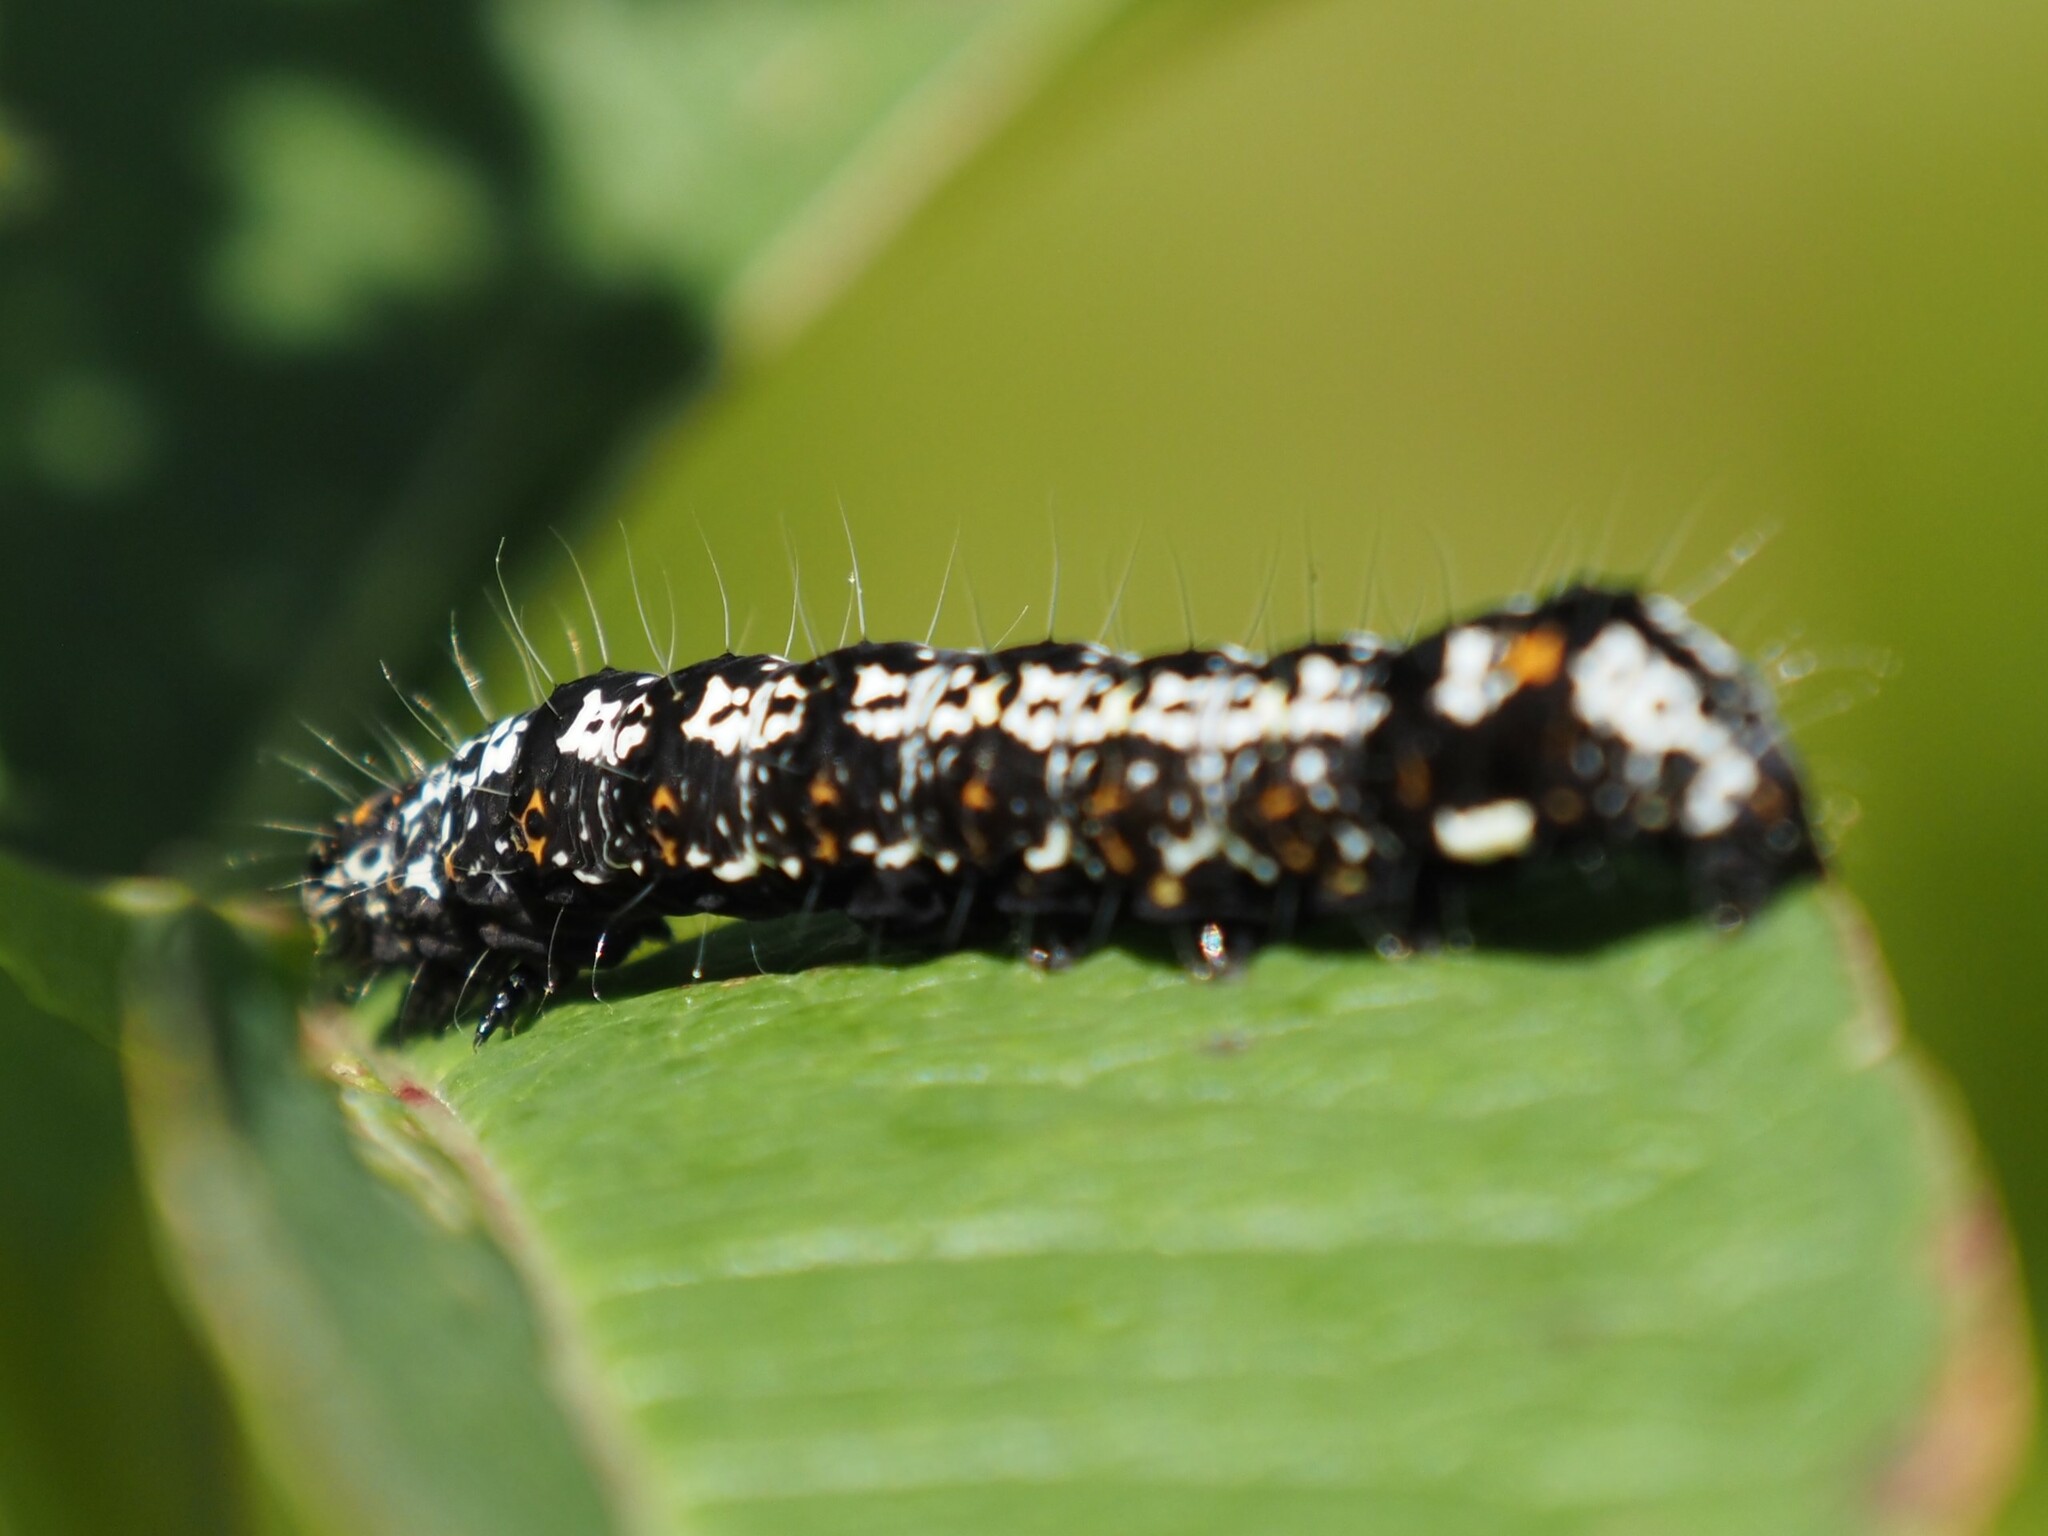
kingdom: Animalia
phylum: Arthropoda
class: Insecta
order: Lepidoptera
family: Noctuidae
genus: Alypia
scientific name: Alypia langtonii
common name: Fireweed caterpillar
